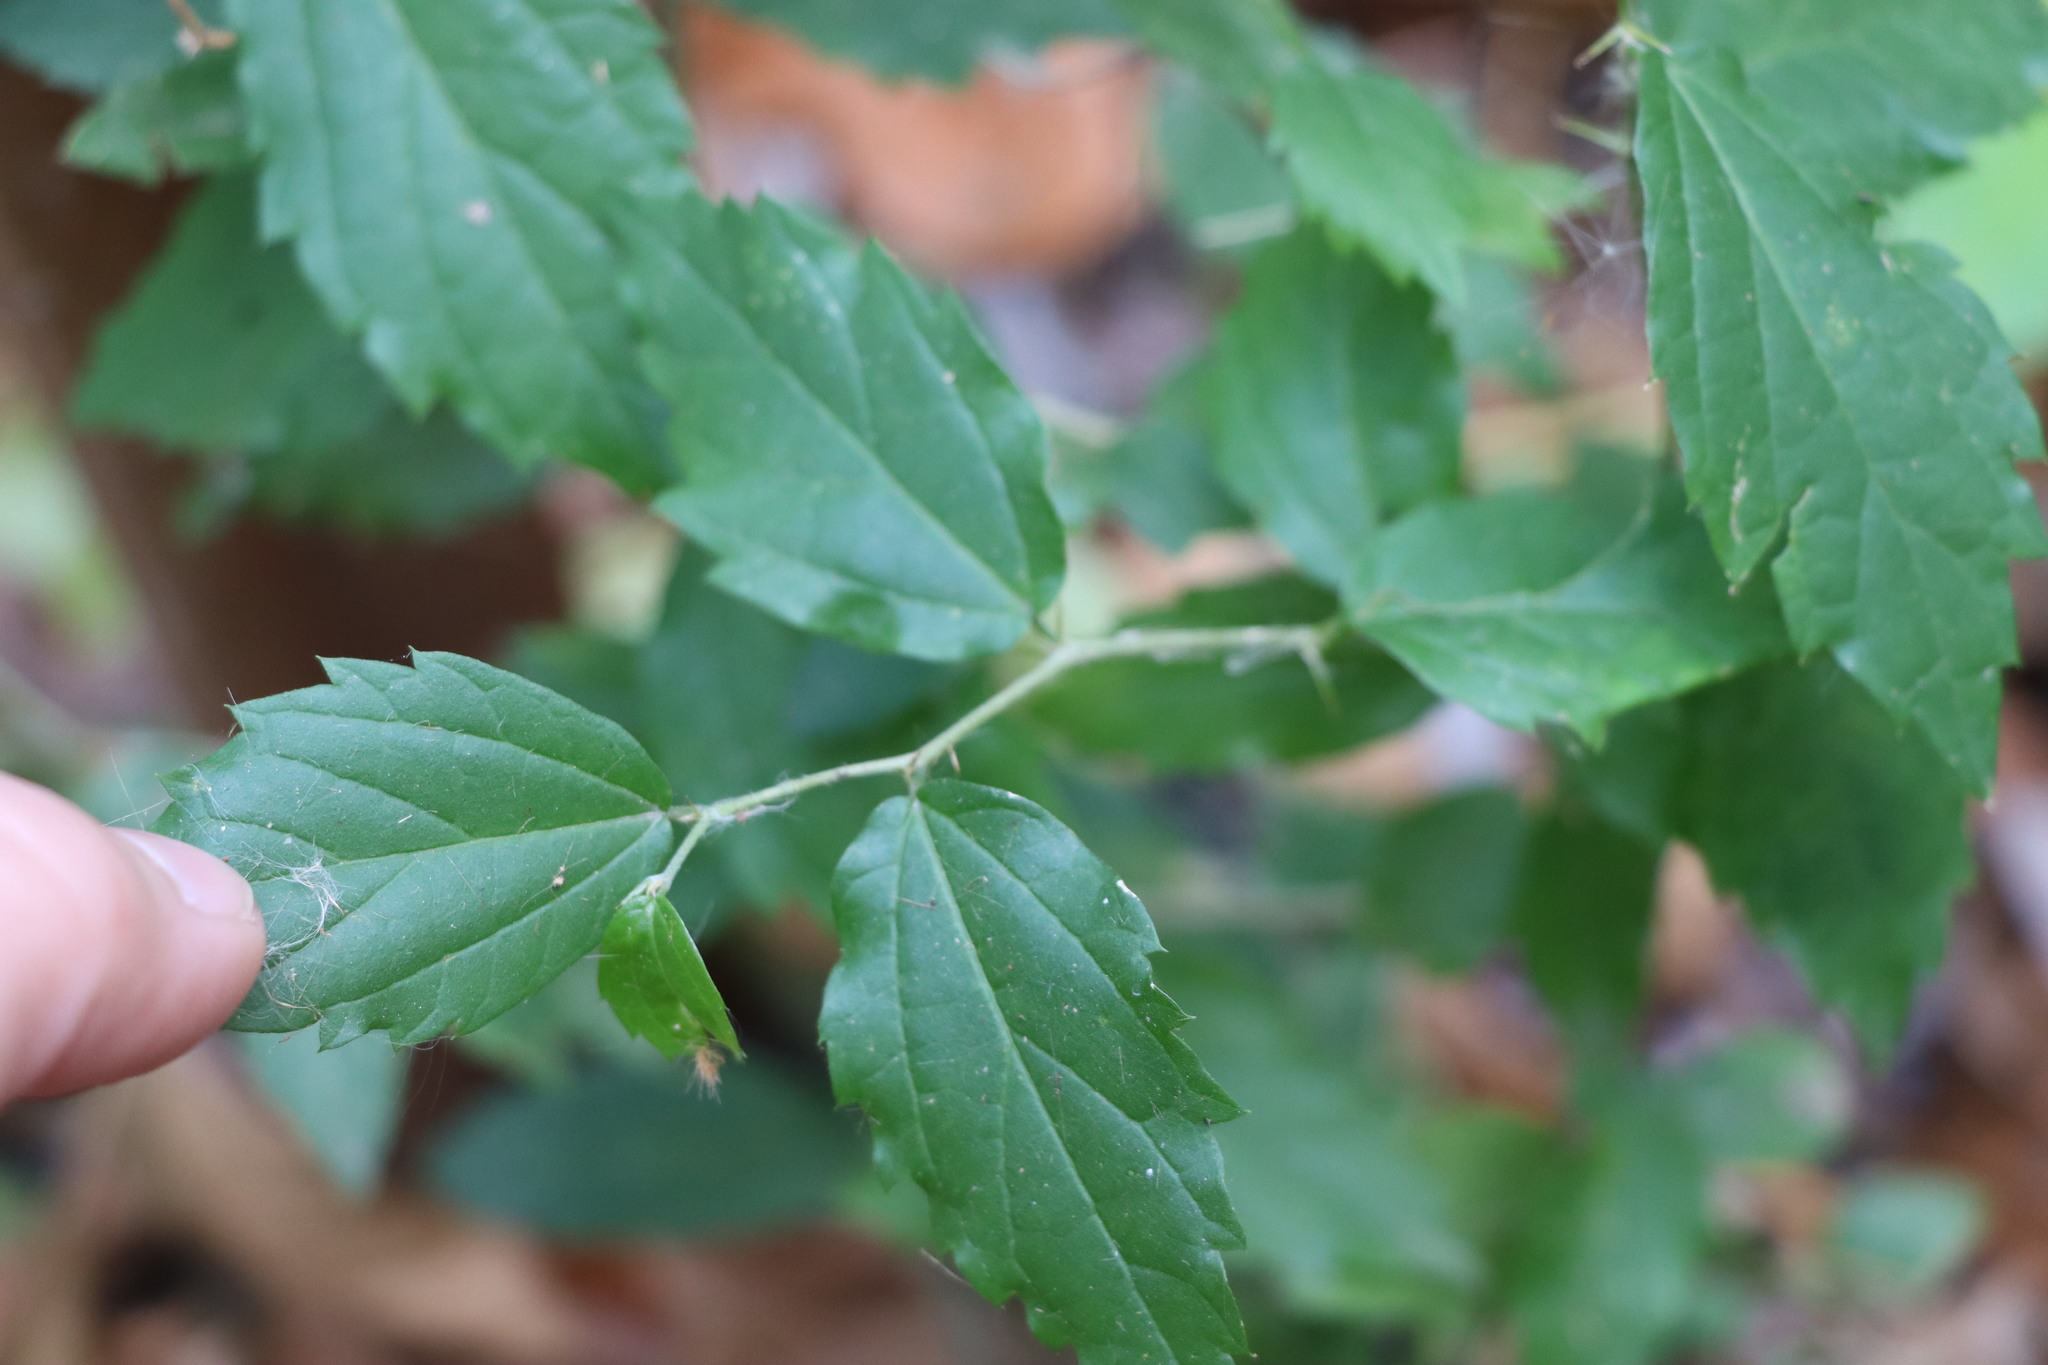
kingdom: Plantae
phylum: Tracheophyta
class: Magnoliopsida
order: Rosales
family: Cannabaceae
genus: Celtis
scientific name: Celtis tala
